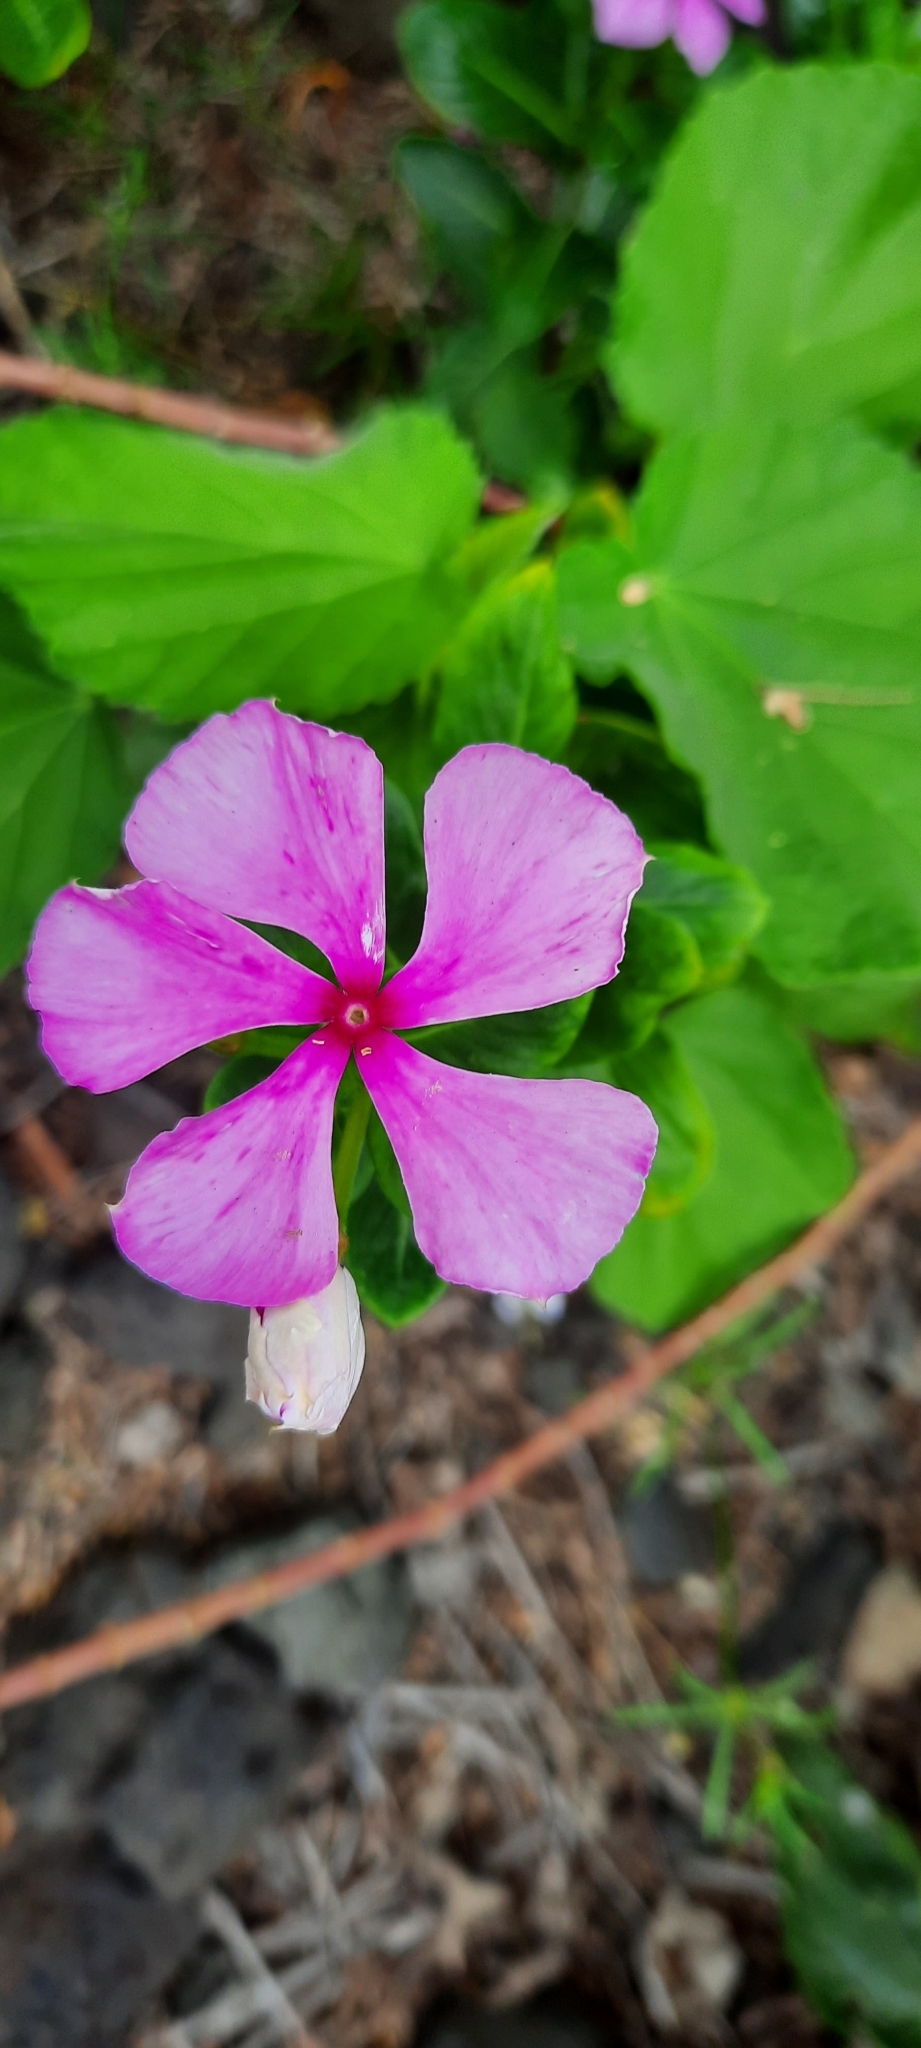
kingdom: Plantae
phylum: Tracheophyta
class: Magnoliopsida
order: Gentianales
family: Apocynaceae
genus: Catharanthus
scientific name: Catharanthus roseus
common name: Madagascar periwinkle
